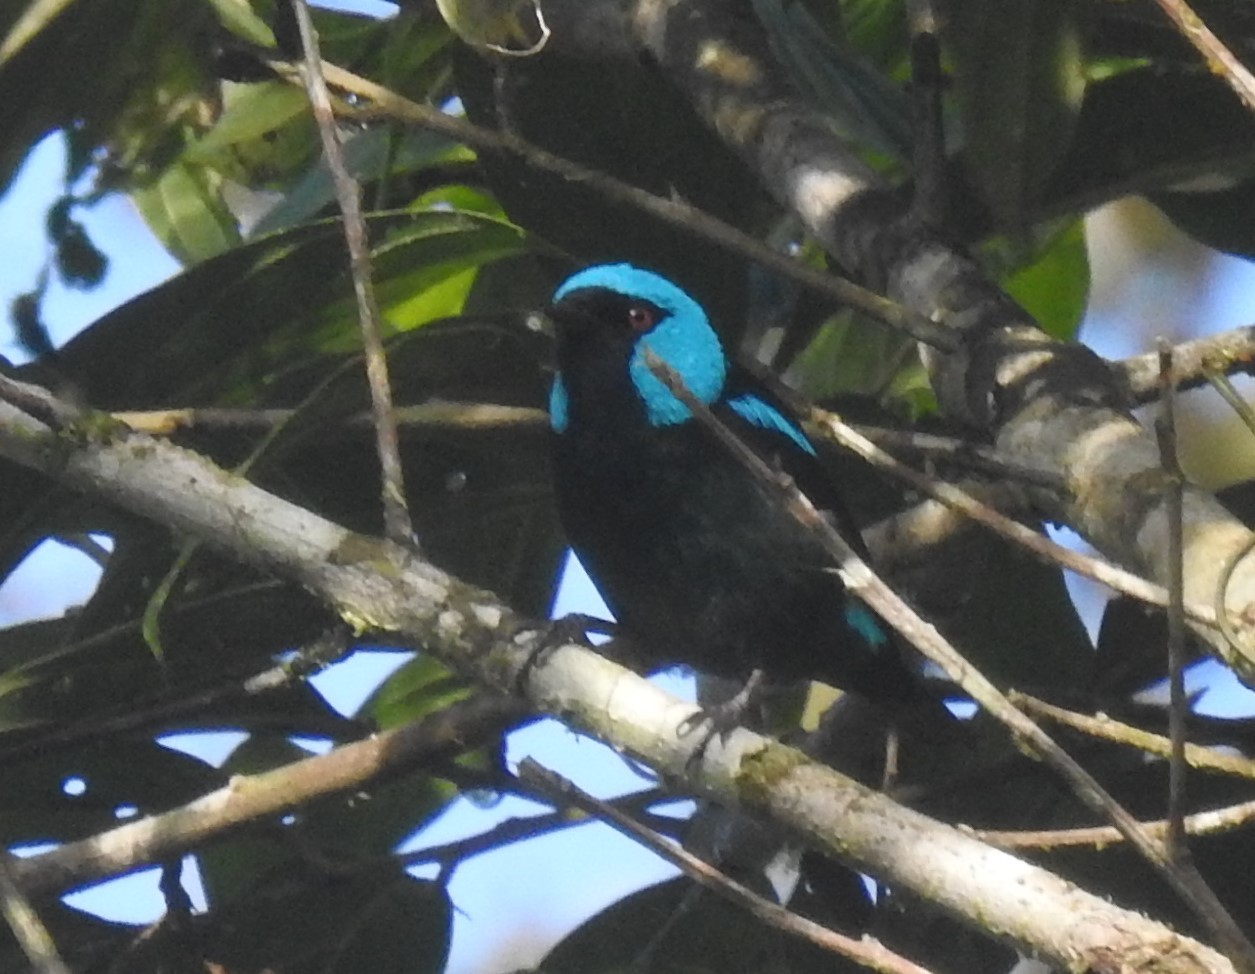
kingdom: Animalia
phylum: Chordata
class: Aves
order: Passeriformes
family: Thraupidae
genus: Dacnis
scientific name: Dacnis venusta
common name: Scarlet-thighed dacnis
